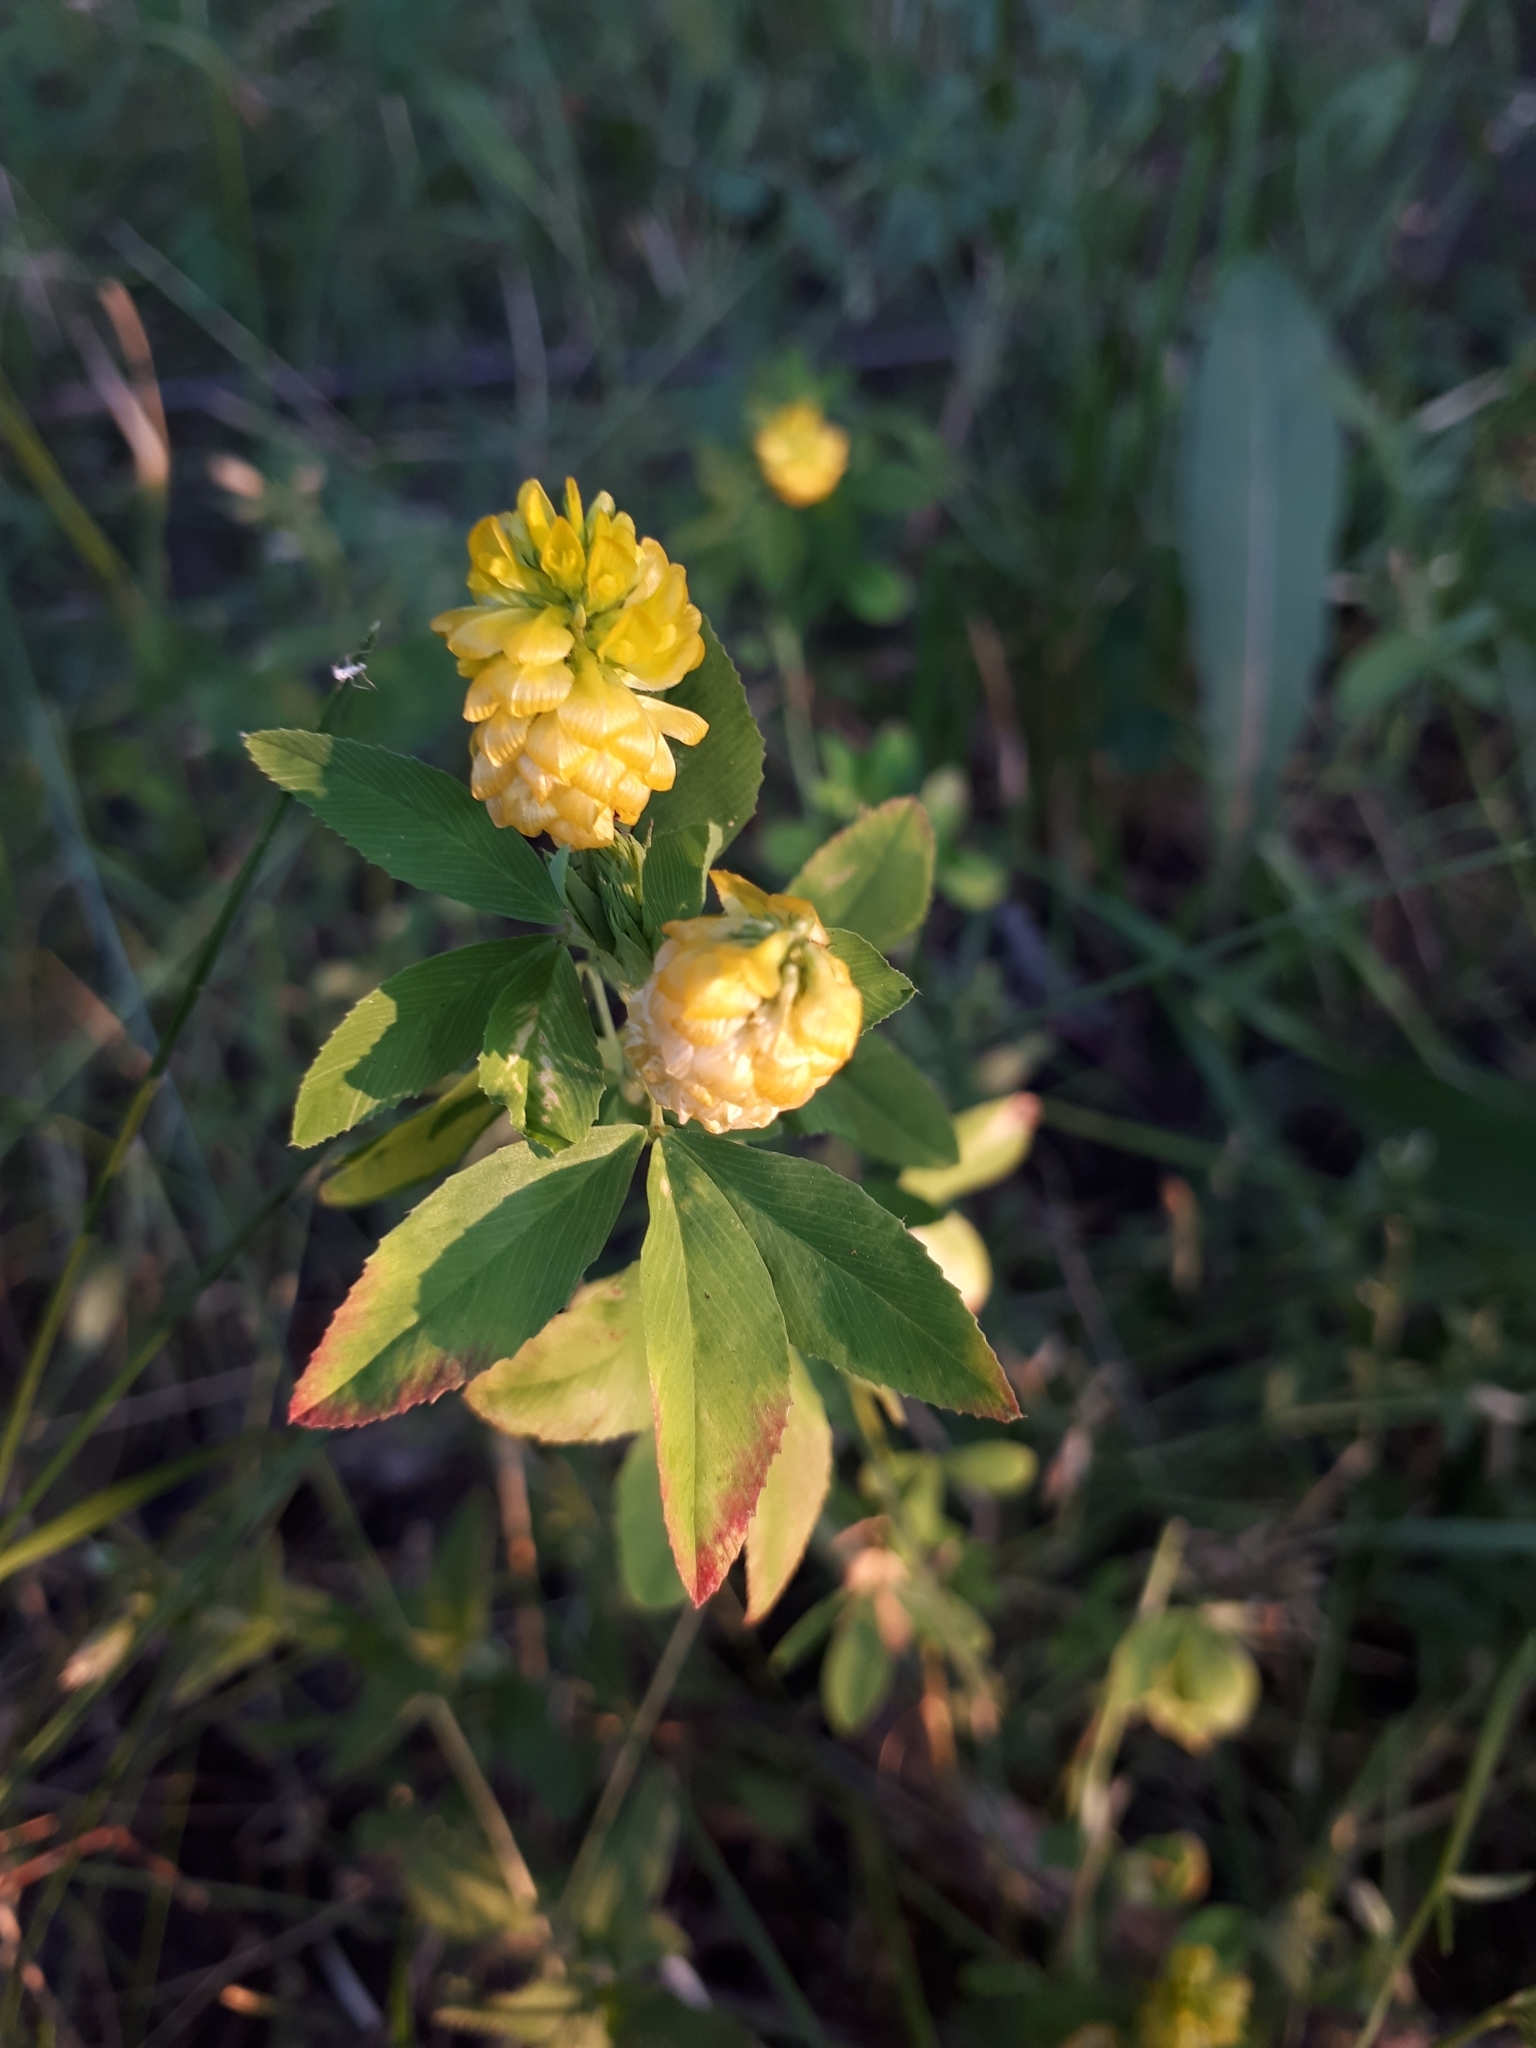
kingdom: Plantae
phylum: Tracheophyta
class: Magnoliopsida
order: Fabales
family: Fabaceae
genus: Trifolium
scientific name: Trifolium aureum
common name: Golden clover
